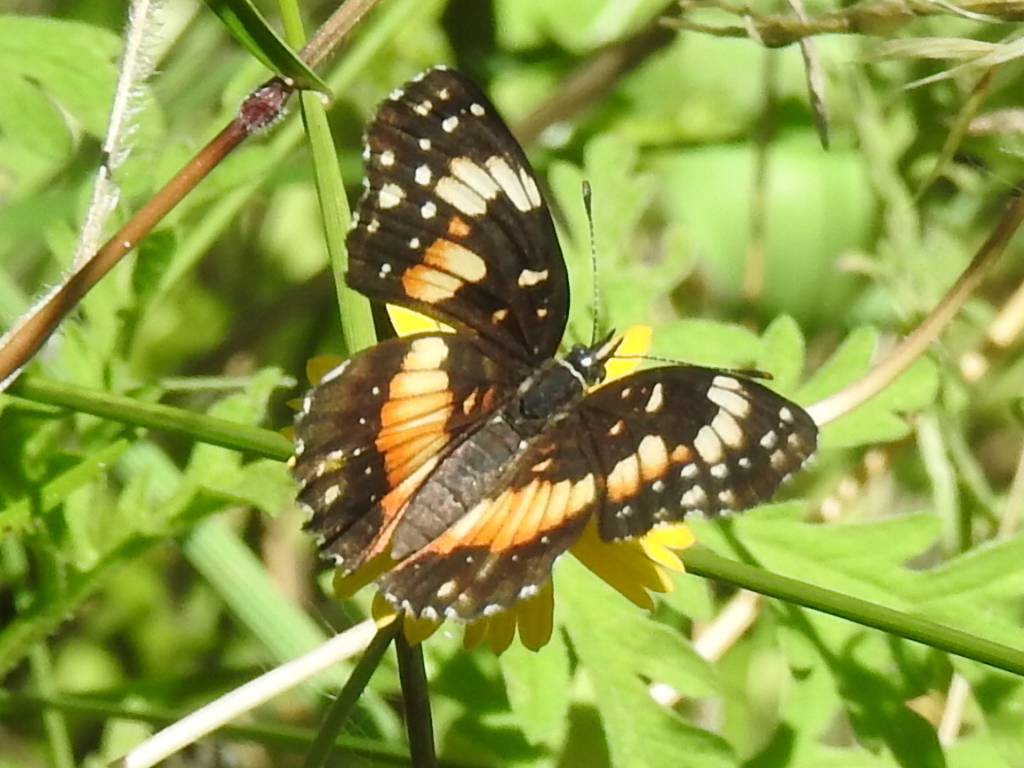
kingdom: Animalia
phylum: Arthropoda
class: Insecta
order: Lepidoptera
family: Nymphalidae
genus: Chlosyne
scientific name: Chlosyne lacinia
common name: Bordered patch
